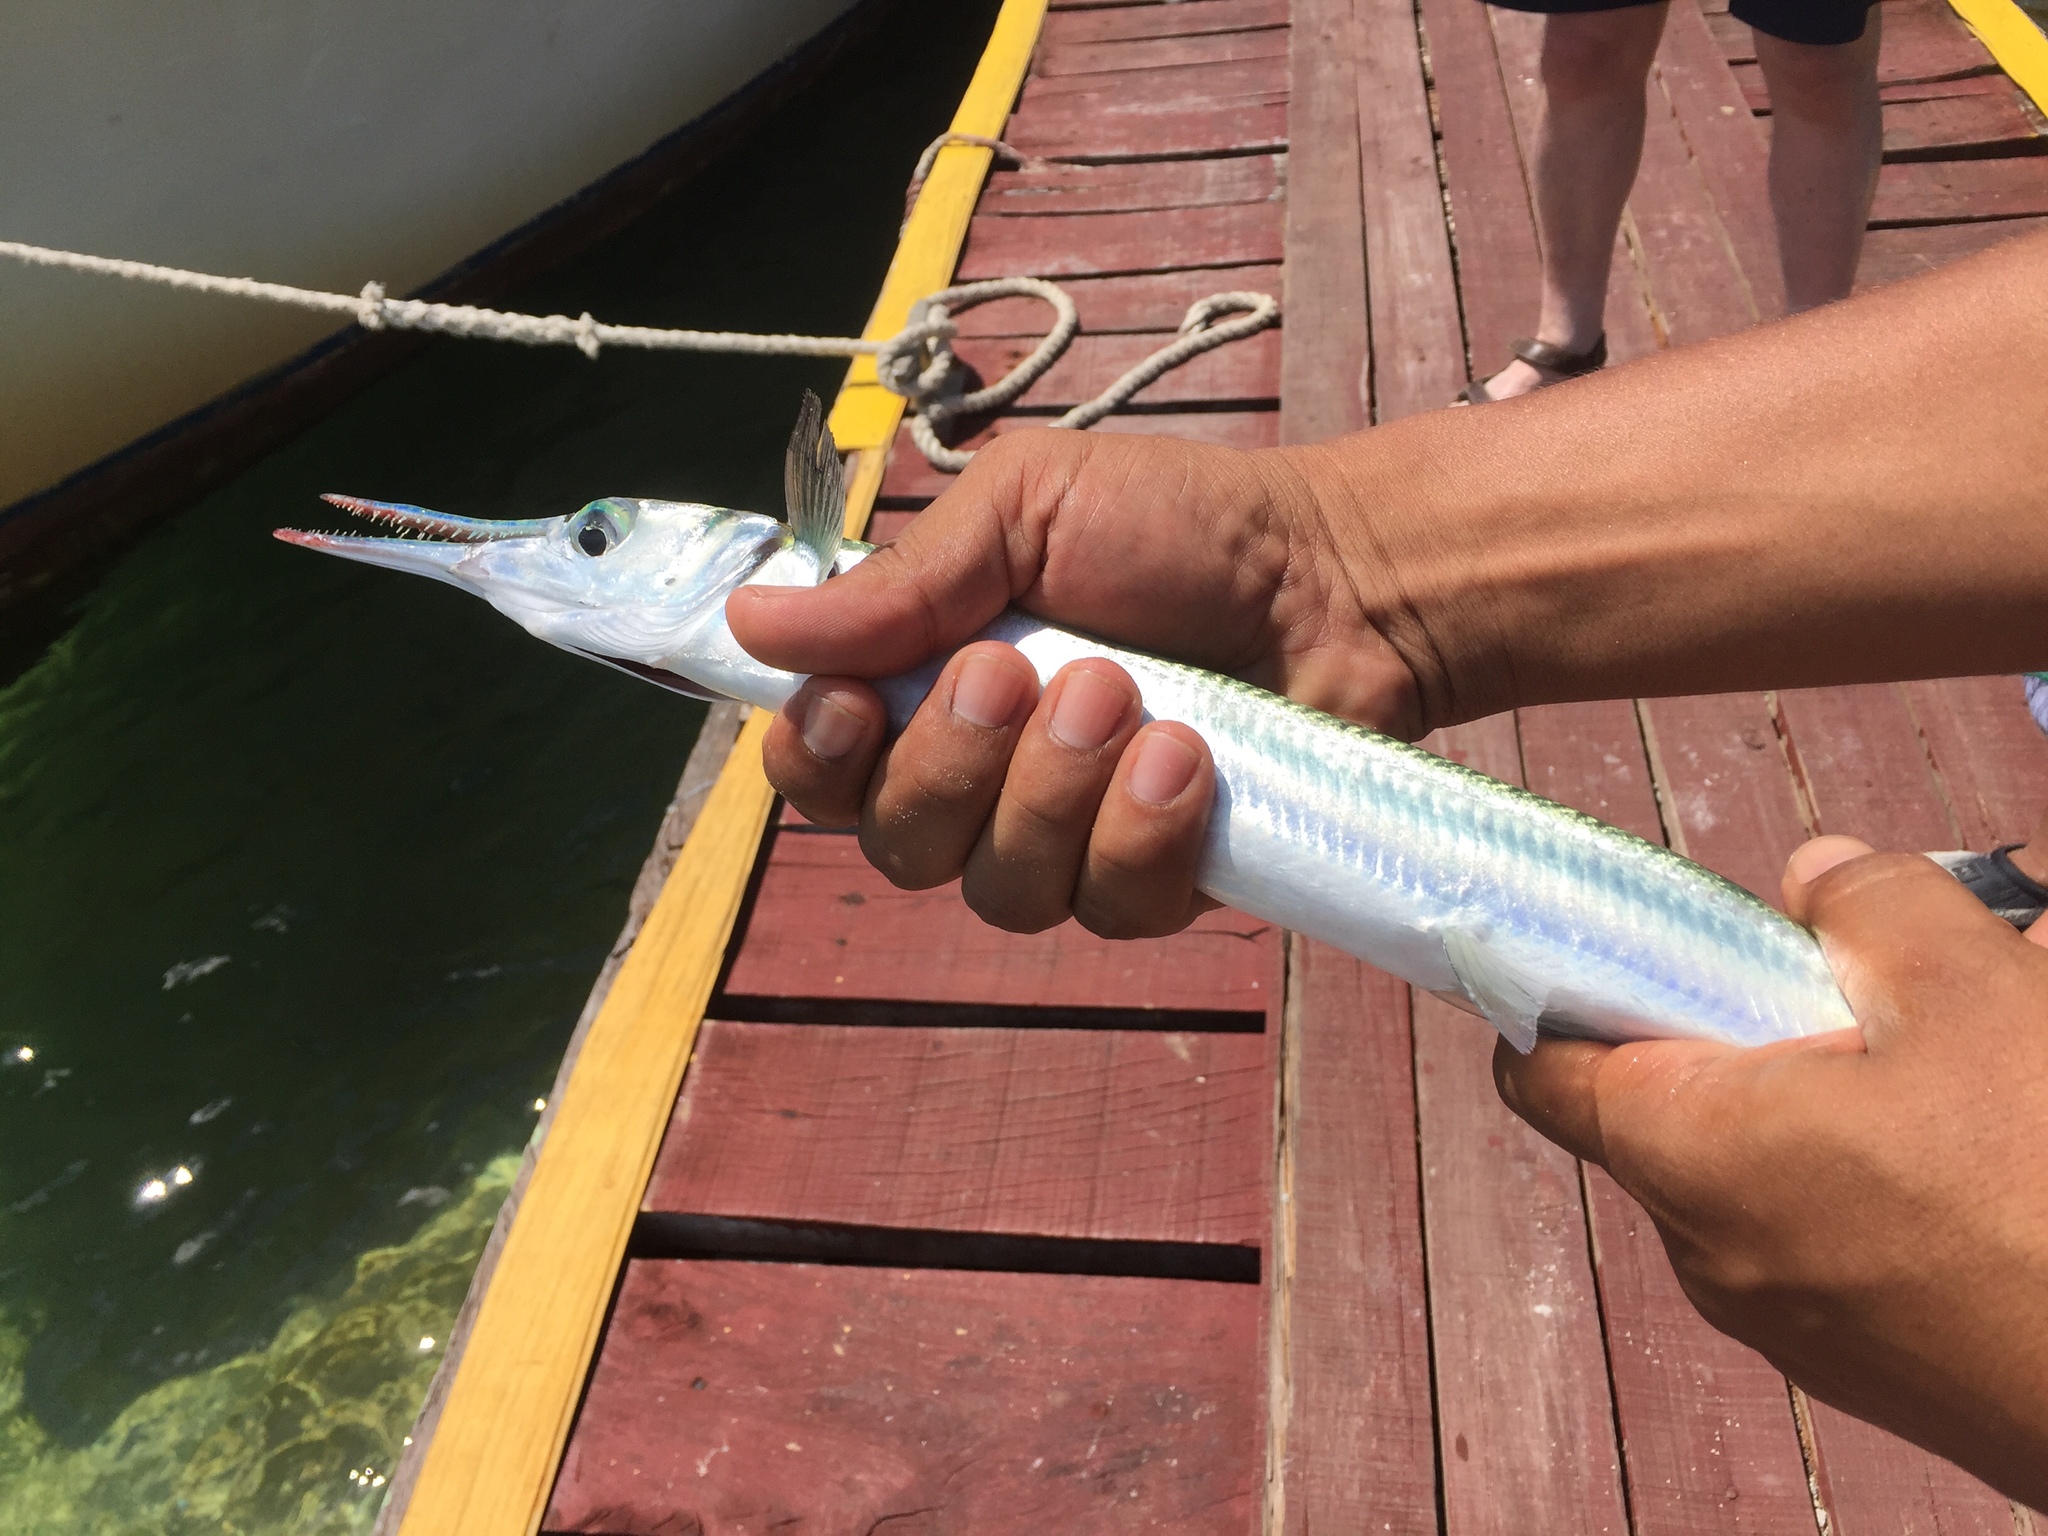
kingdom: Animalia
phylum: Chordata
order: Beloniformes
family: Belonidae
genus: Tylosurus
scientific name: Tylosurus crocodilus
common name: Houndfish
